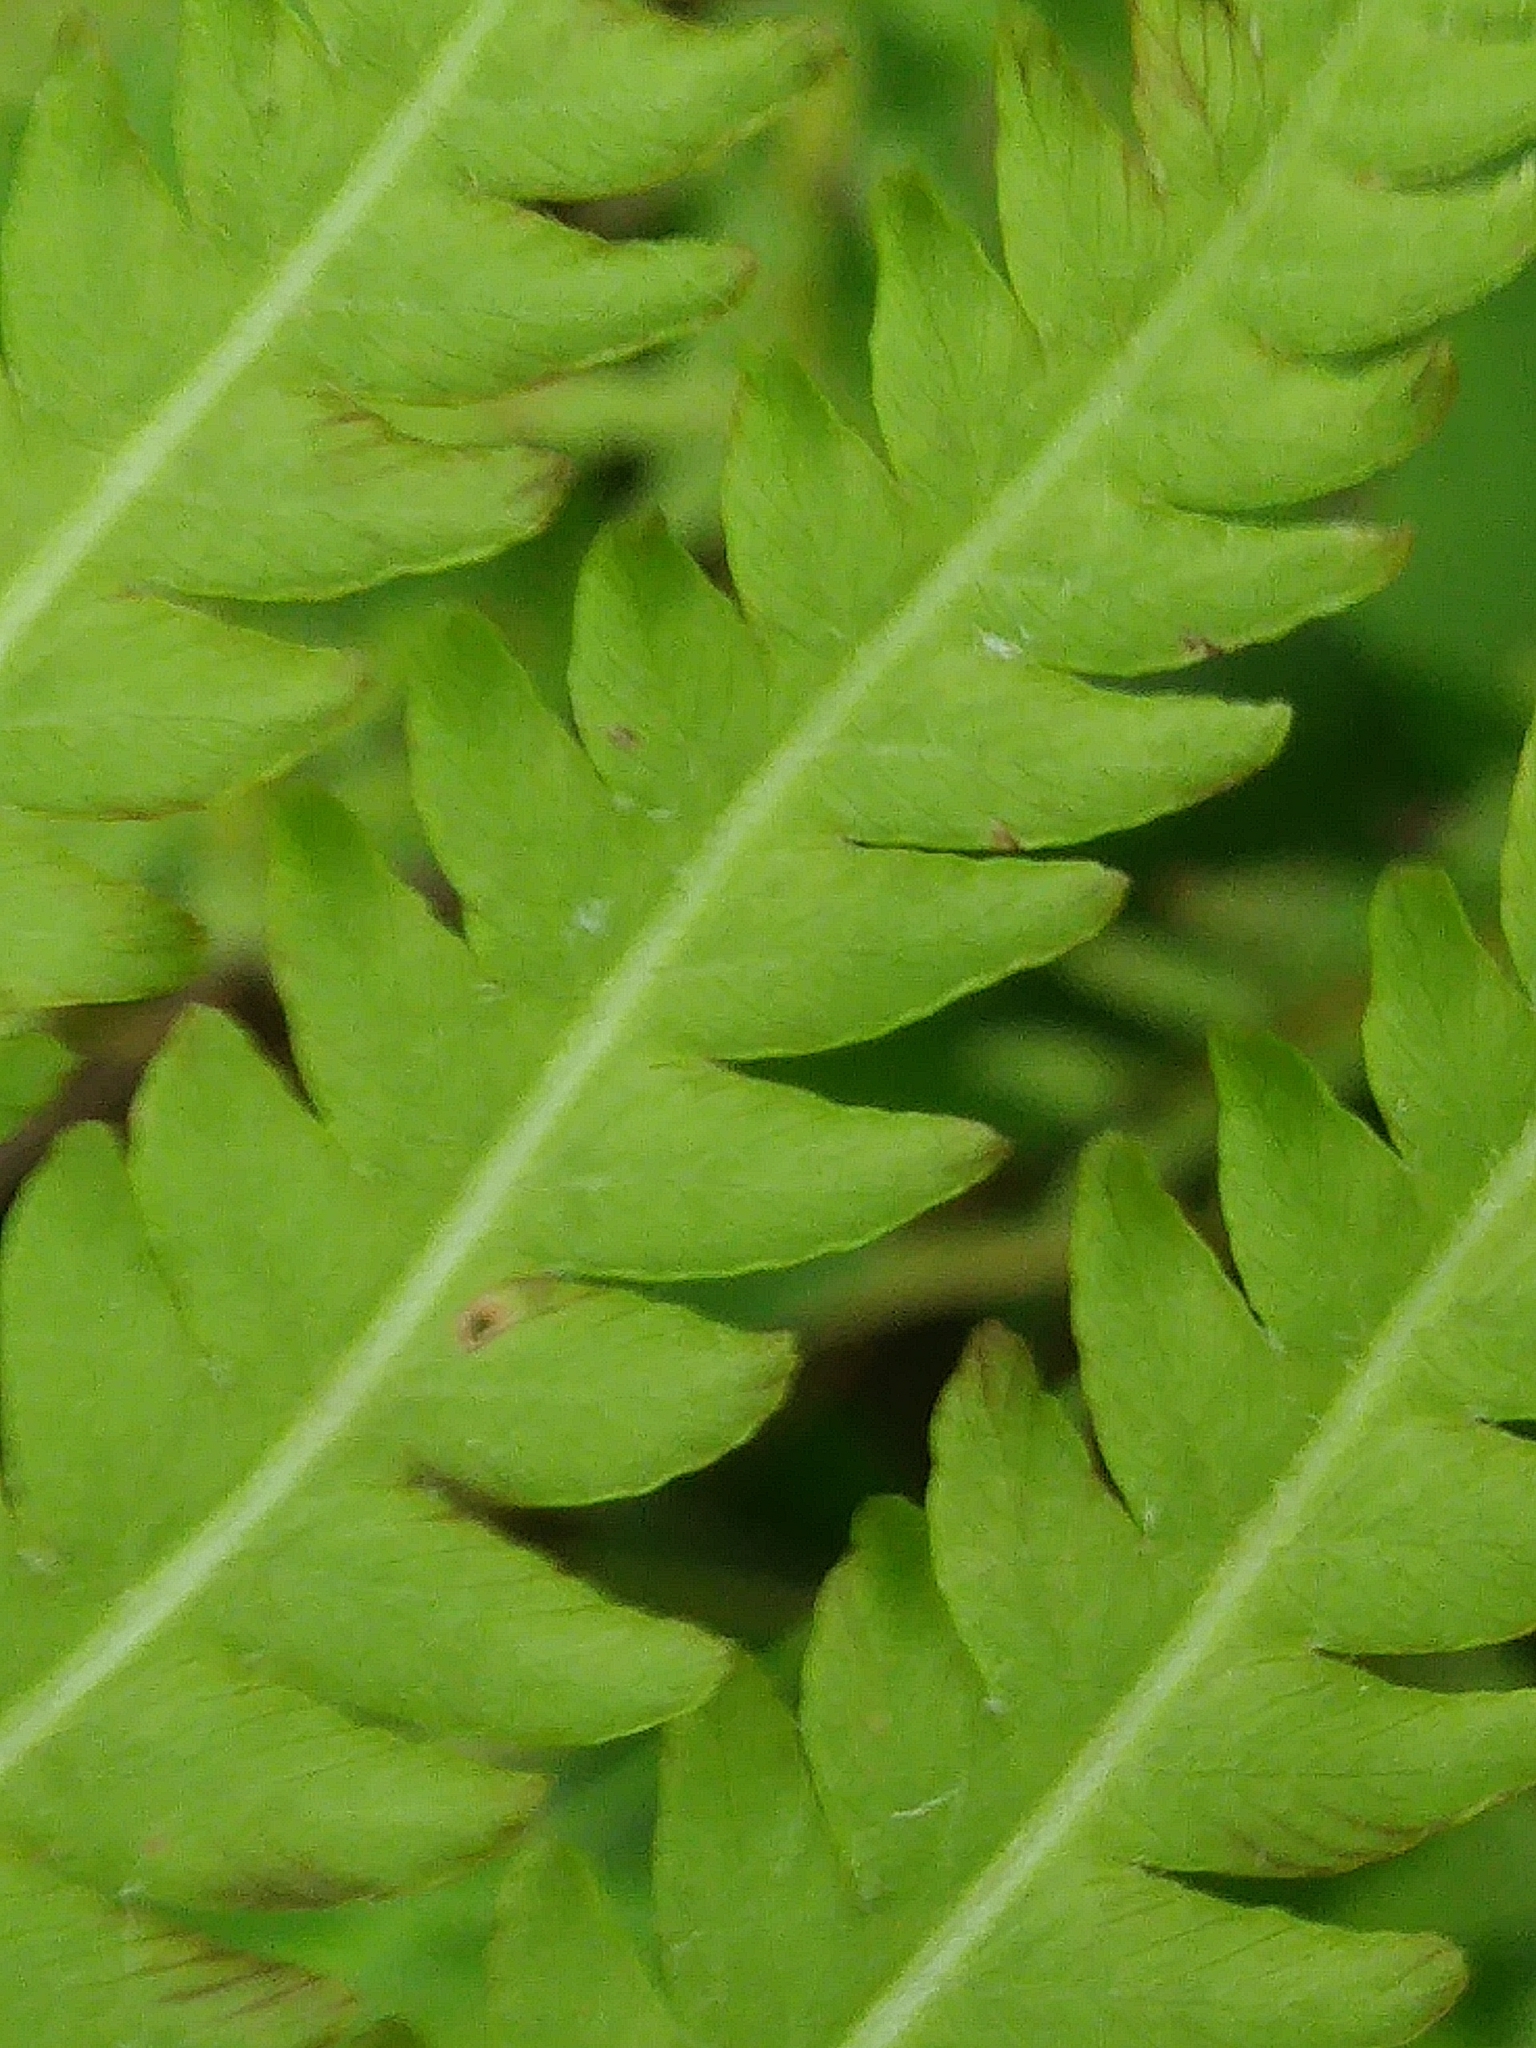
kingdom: Plantae
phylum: Tracheophyta
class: Polypodiopsida
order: Polypodiales
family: Onocleaceae
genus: Matteuccia
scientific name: Matteuccia struthiopteris
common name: Ostrich fern
